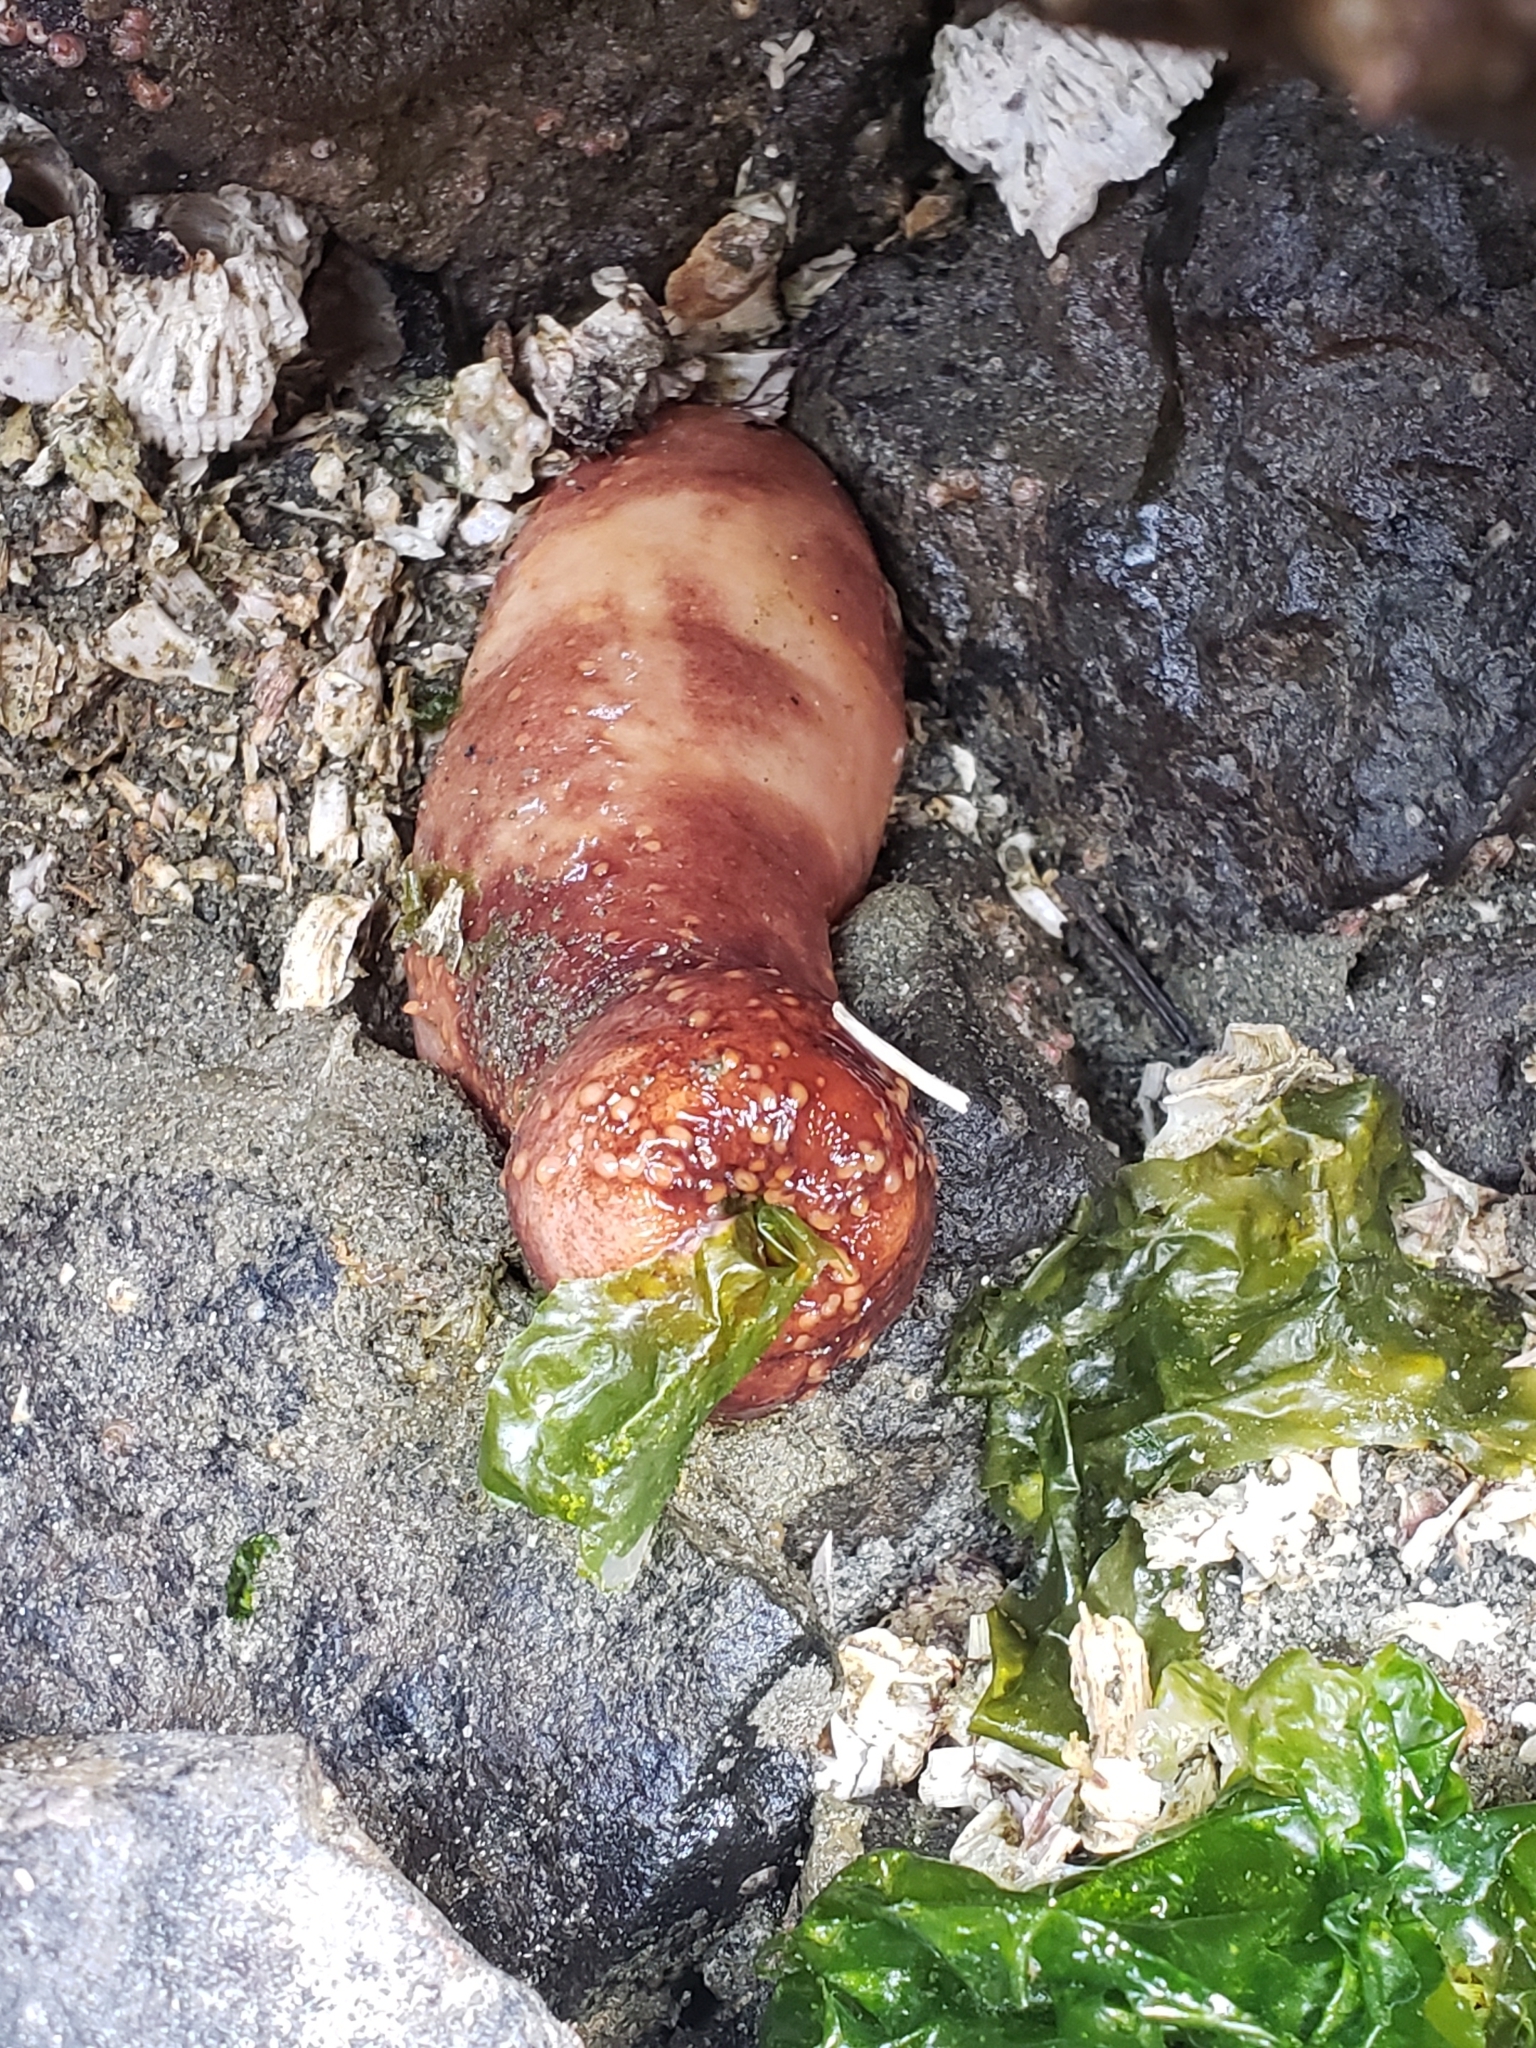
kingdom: Animalia
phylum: Echinodermata
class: Holothuroidea
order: Dendrochirotida
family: Cucumariidae
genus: Cucumaria
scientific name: Cucumaria miniata
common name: Orange sea cucumber
